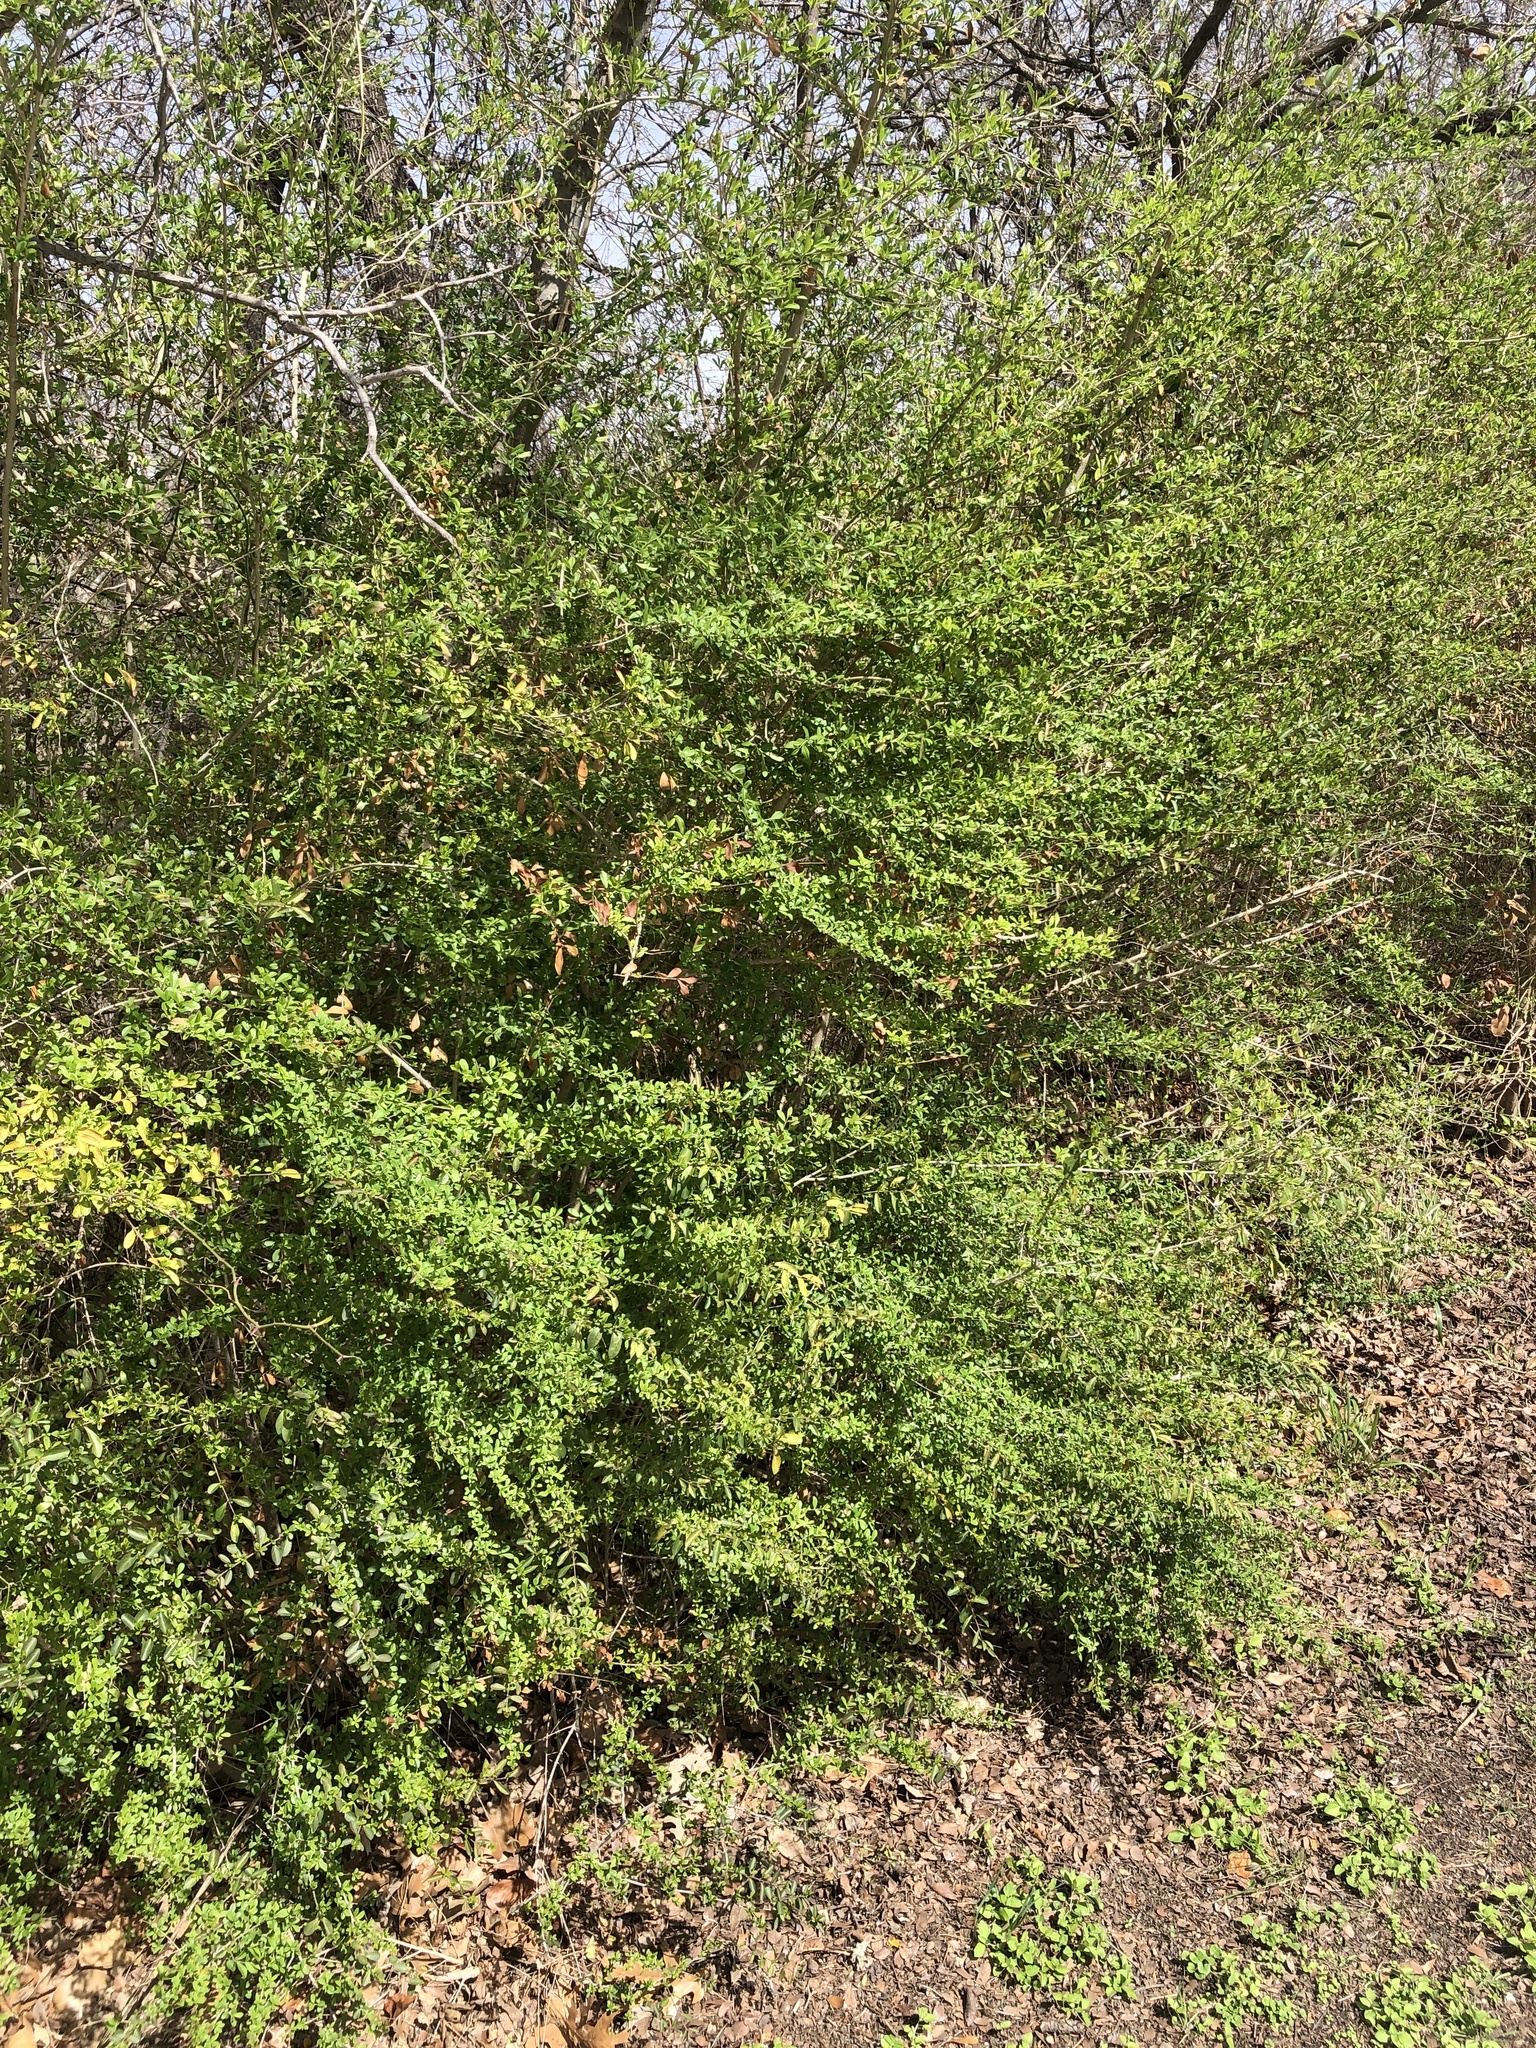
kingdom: Plantae
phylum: Tracheophyta
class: Magnoliopsida
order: Lamiales
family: Oleaceae
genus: Ligustrum
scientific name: Ligustrum quihoui
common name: Waxyleaf privet
